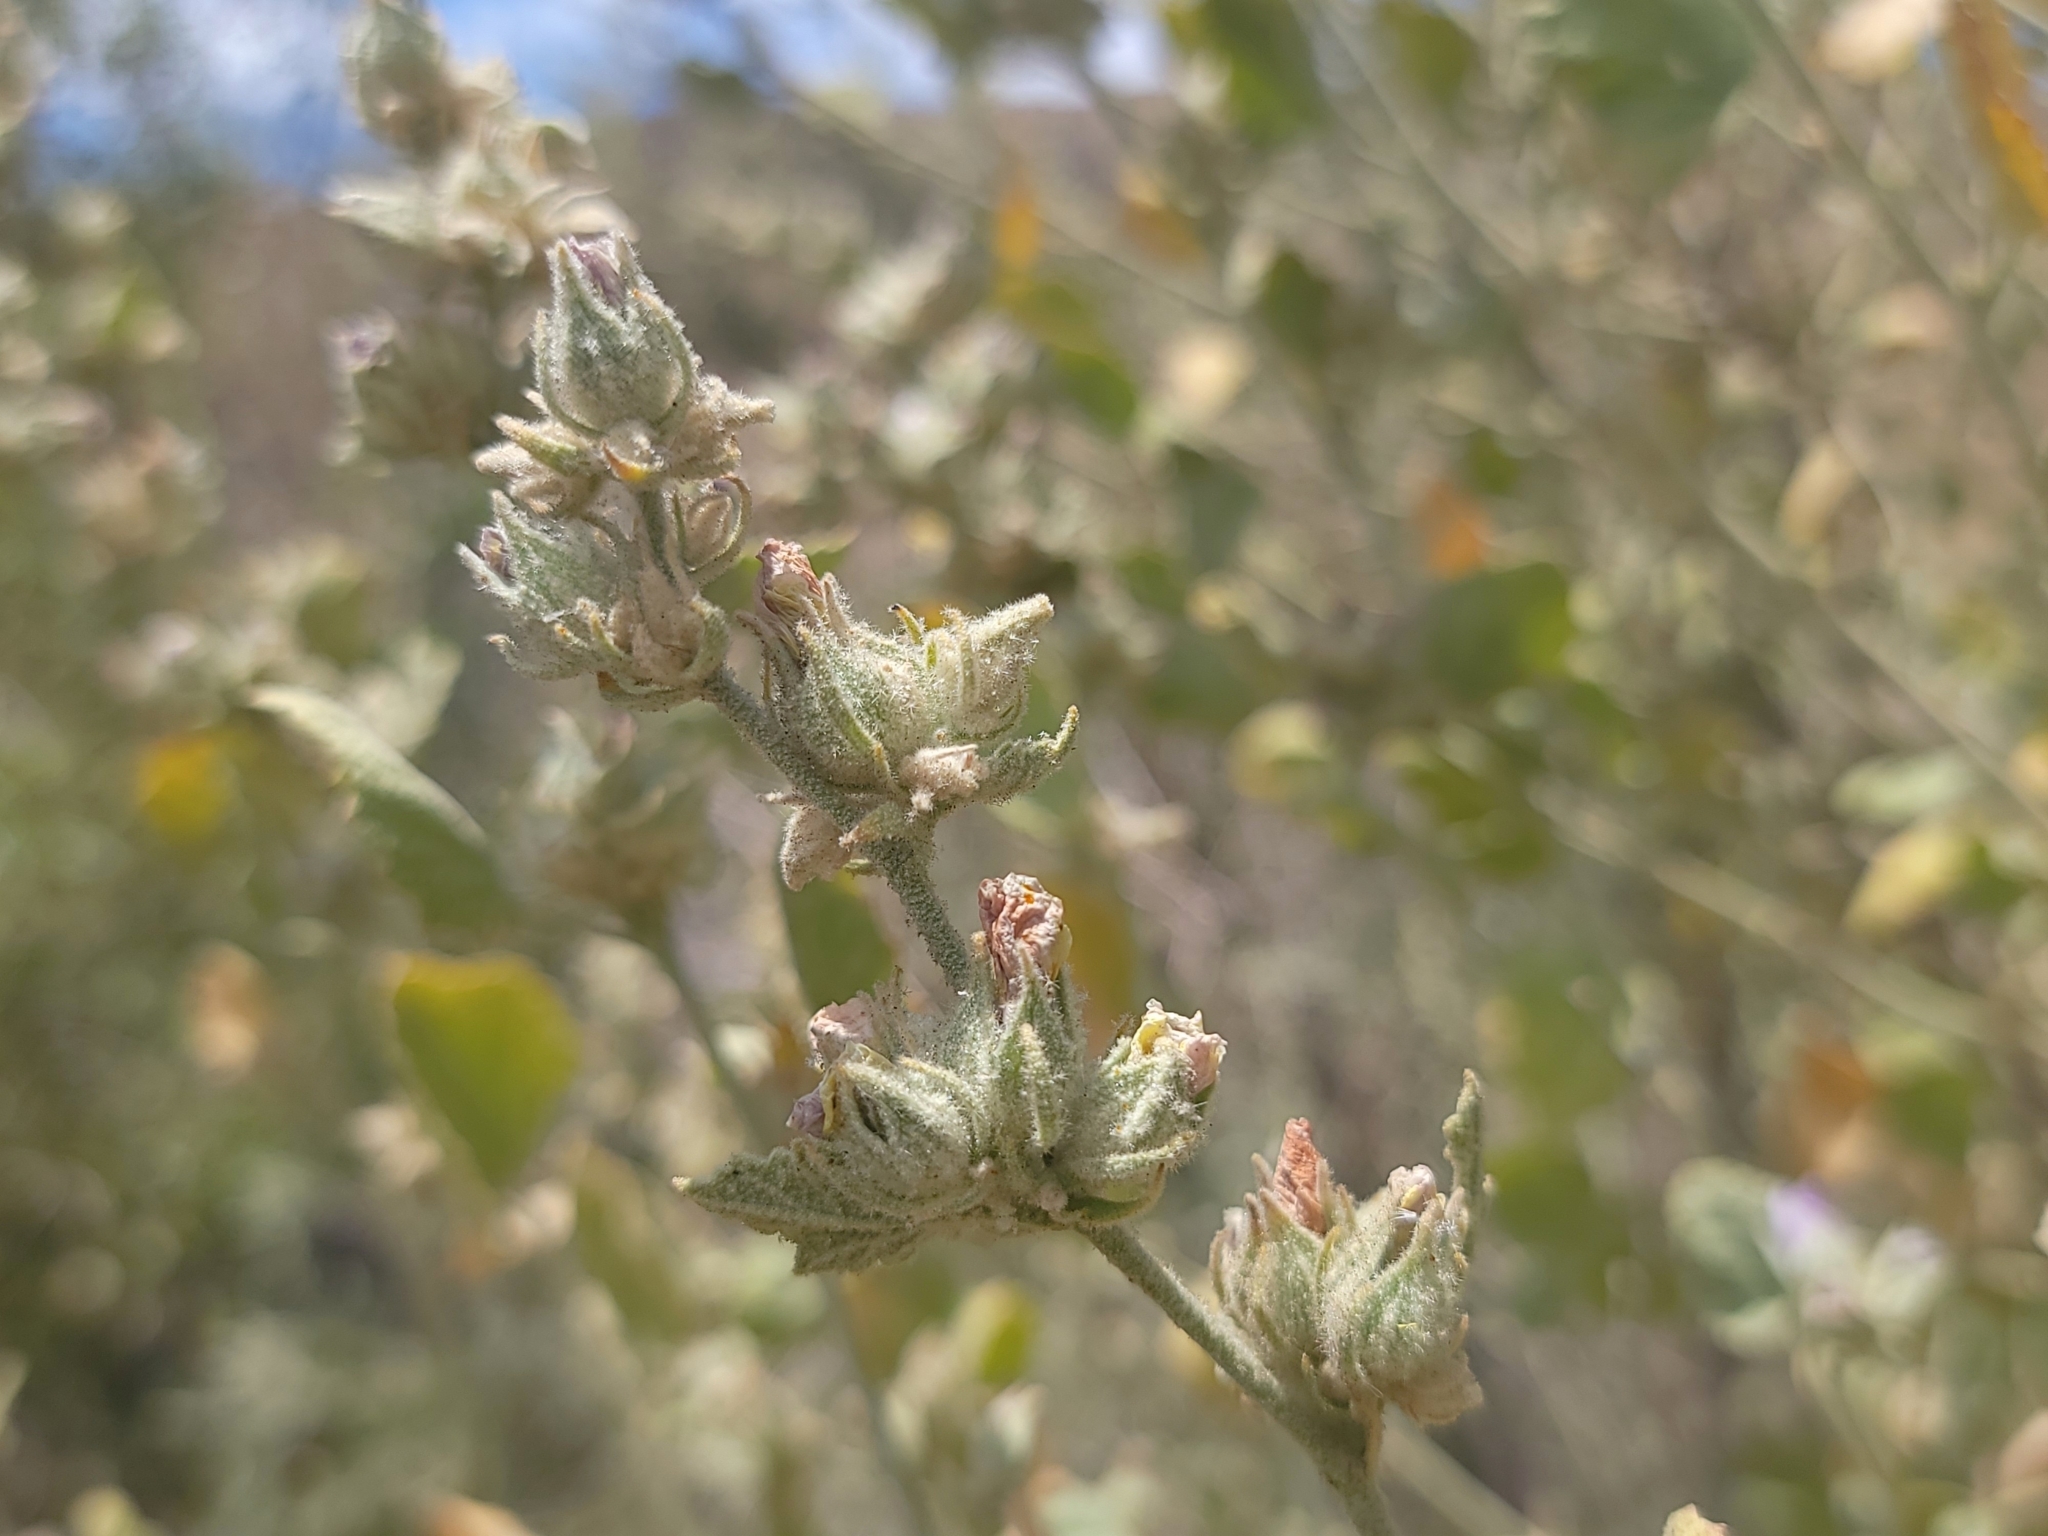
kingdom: Plantae
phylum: Tracheophyta
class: Magnoliopsida
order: Malvales
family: Malvaceae
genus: Malacothamnus
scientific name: Malacothamnus marrubioides
